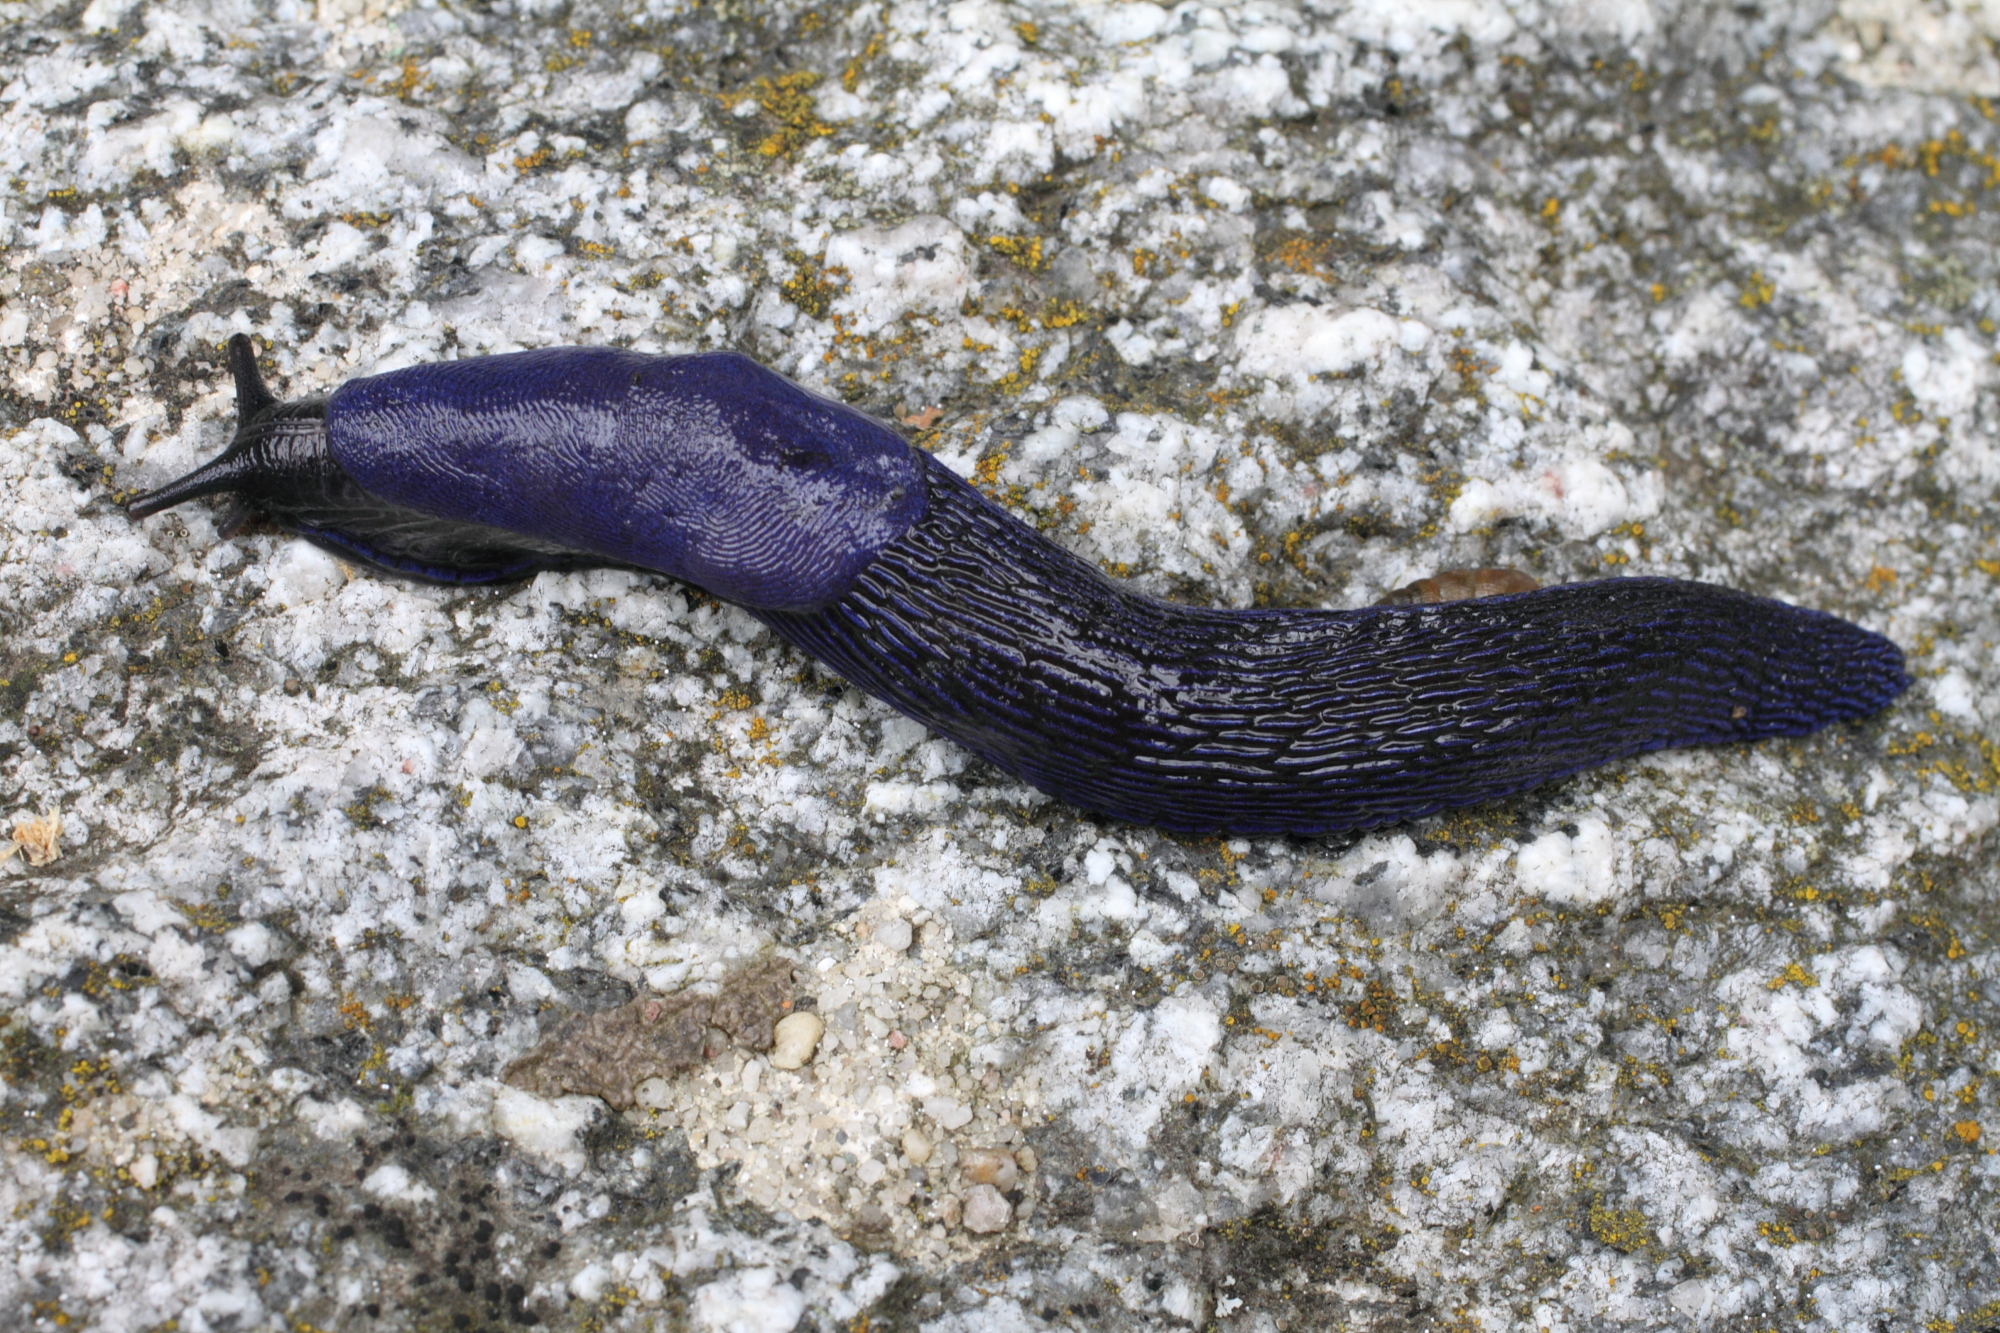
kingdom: Animalia
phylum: Mollusca
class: Gastropoda
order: Stylommatophora
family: Limacidae
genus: Bielzia
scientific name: Bielzia coerulans
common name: Carpathian blue slug
